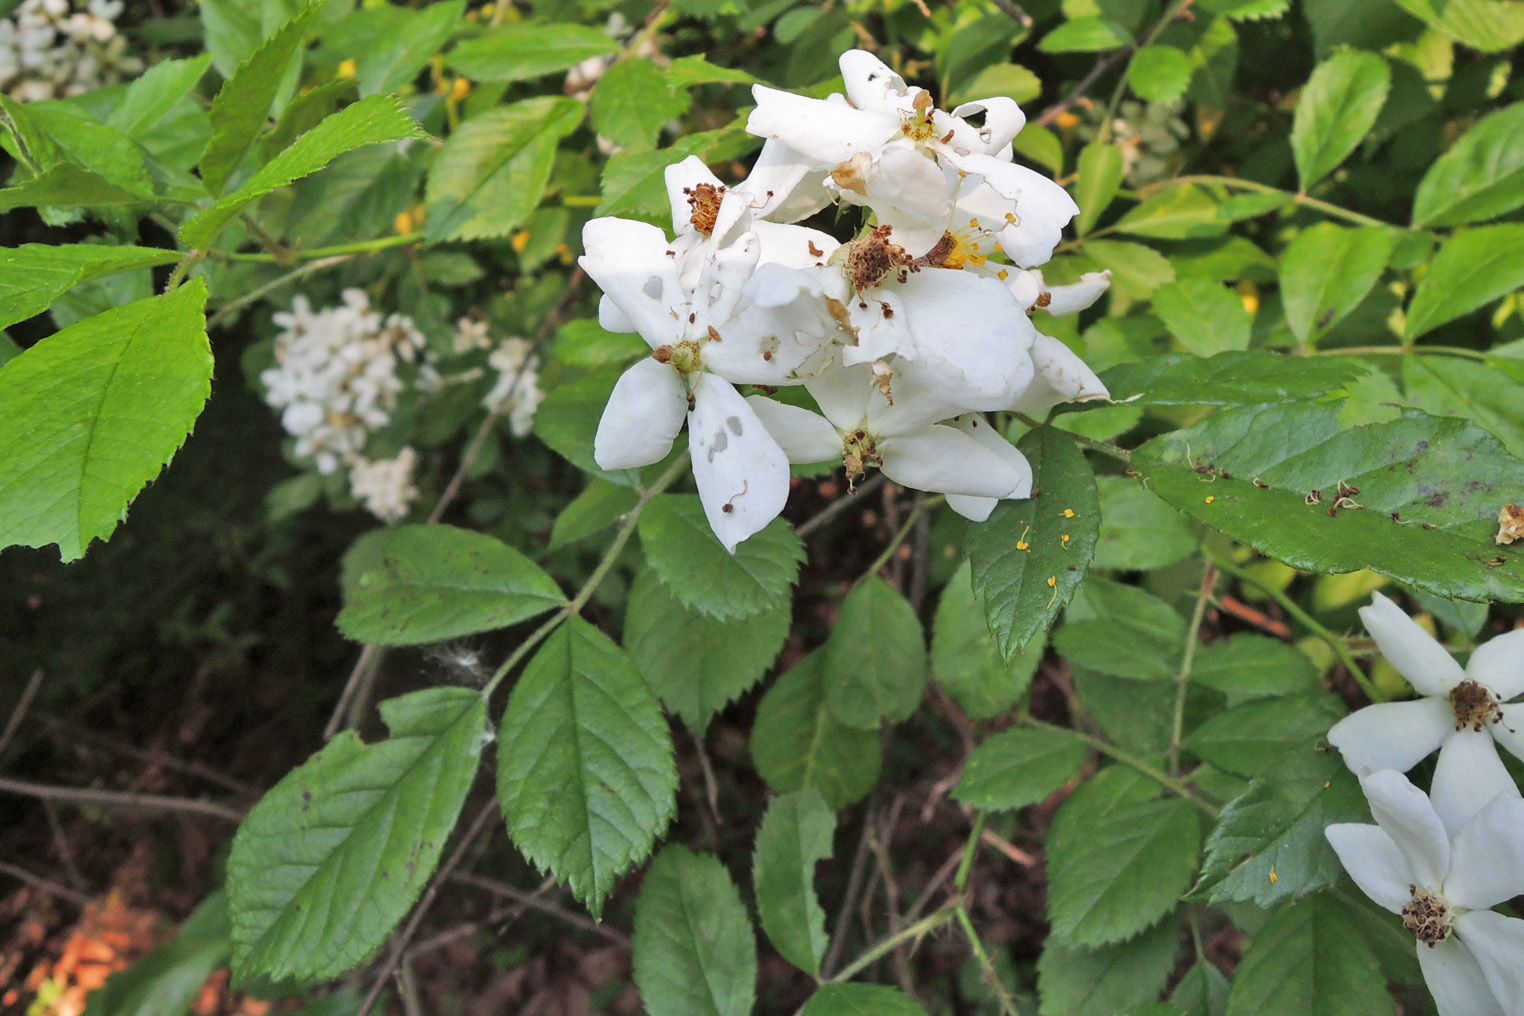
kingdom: Plantae
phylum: Tracheophyta
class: Magnoliopsida
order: Rosales
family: Rosaceae
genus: Rosa
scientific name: Rosa multiflora
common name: Multiflora rose
